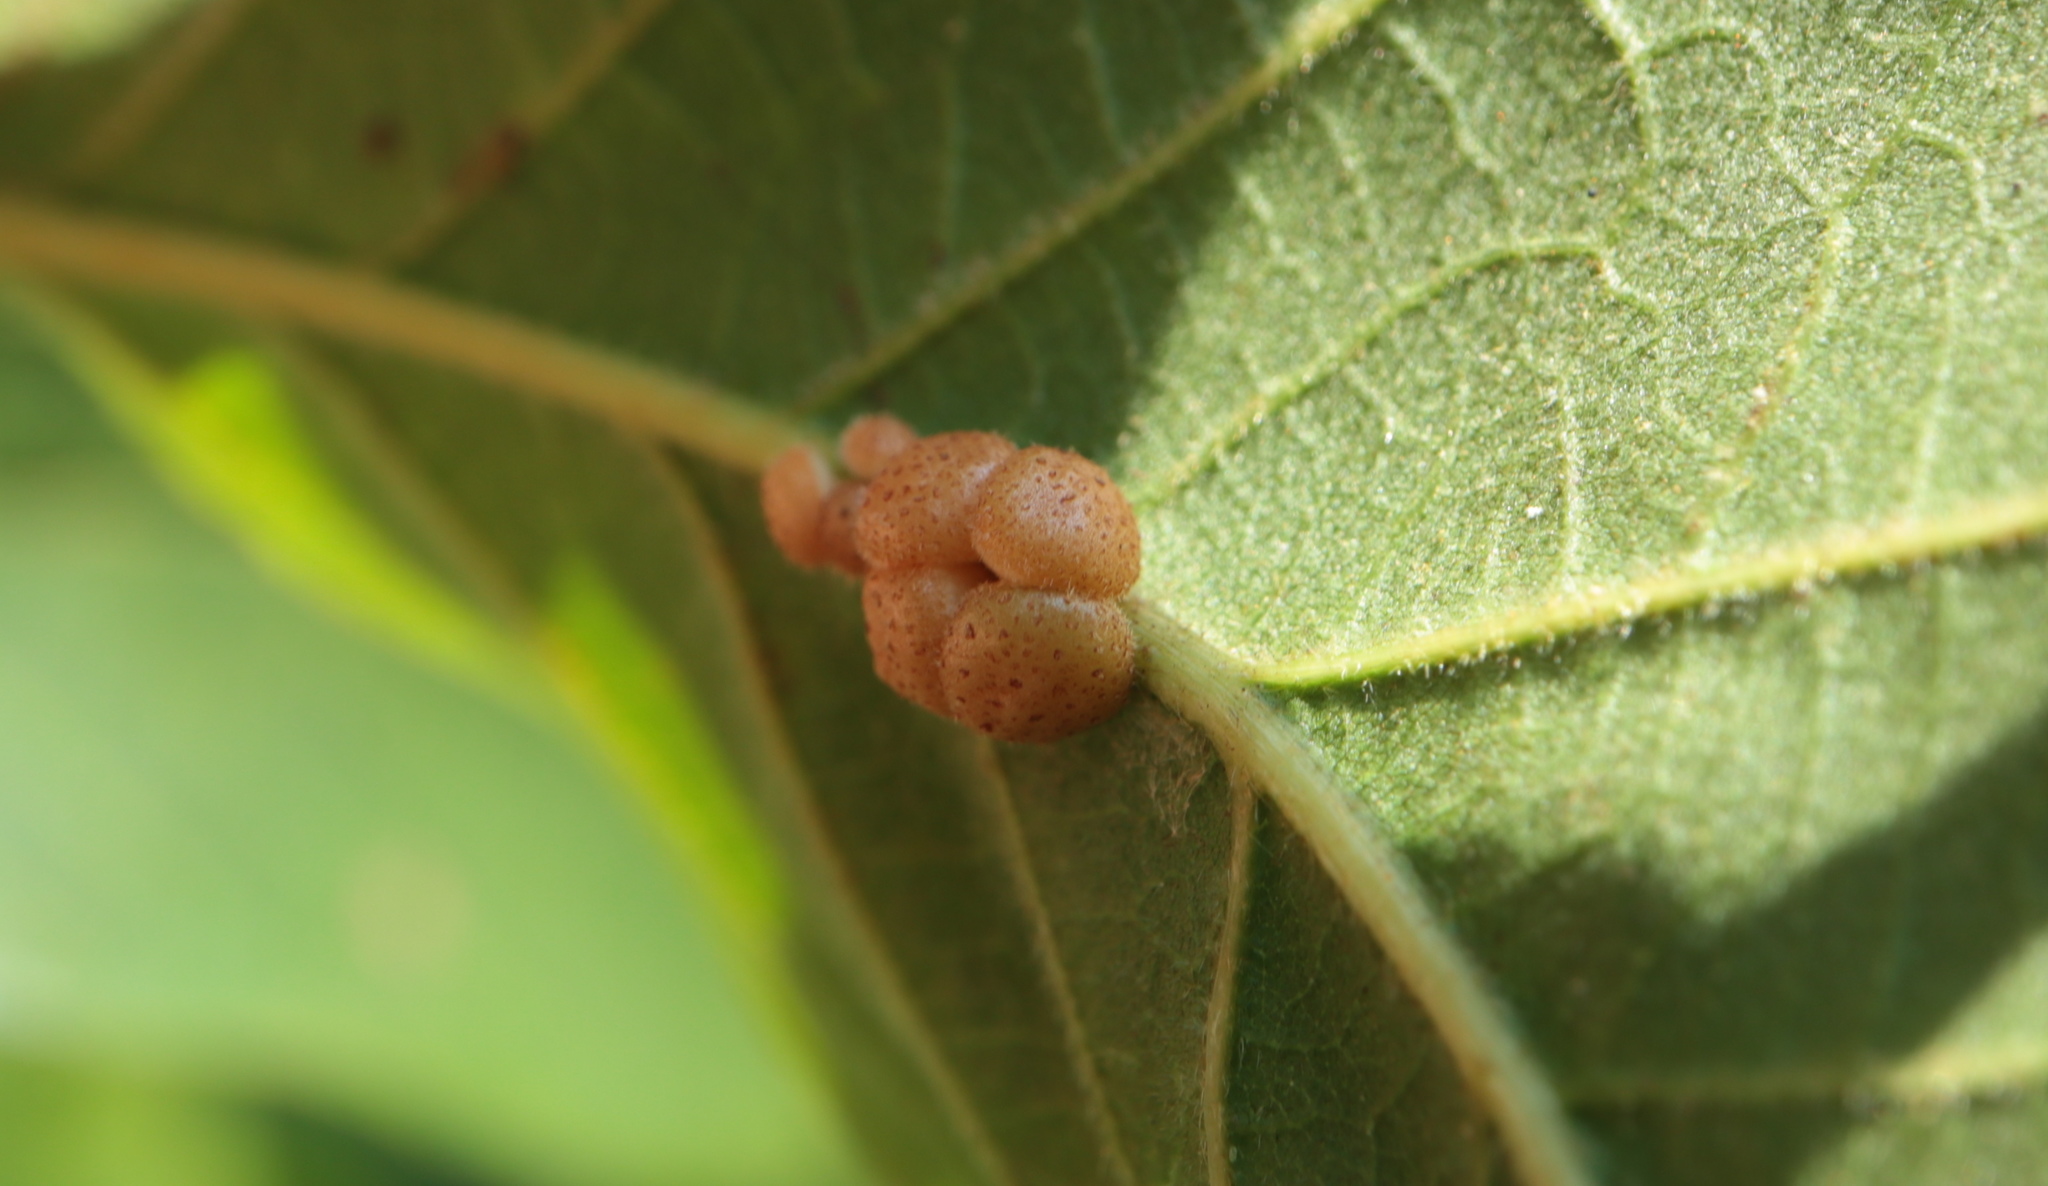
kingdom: Animalia
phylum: Arthropoda
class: Insecta
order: Hymenoptera
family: Cynipidae
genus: Andricus
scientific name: Andricus
